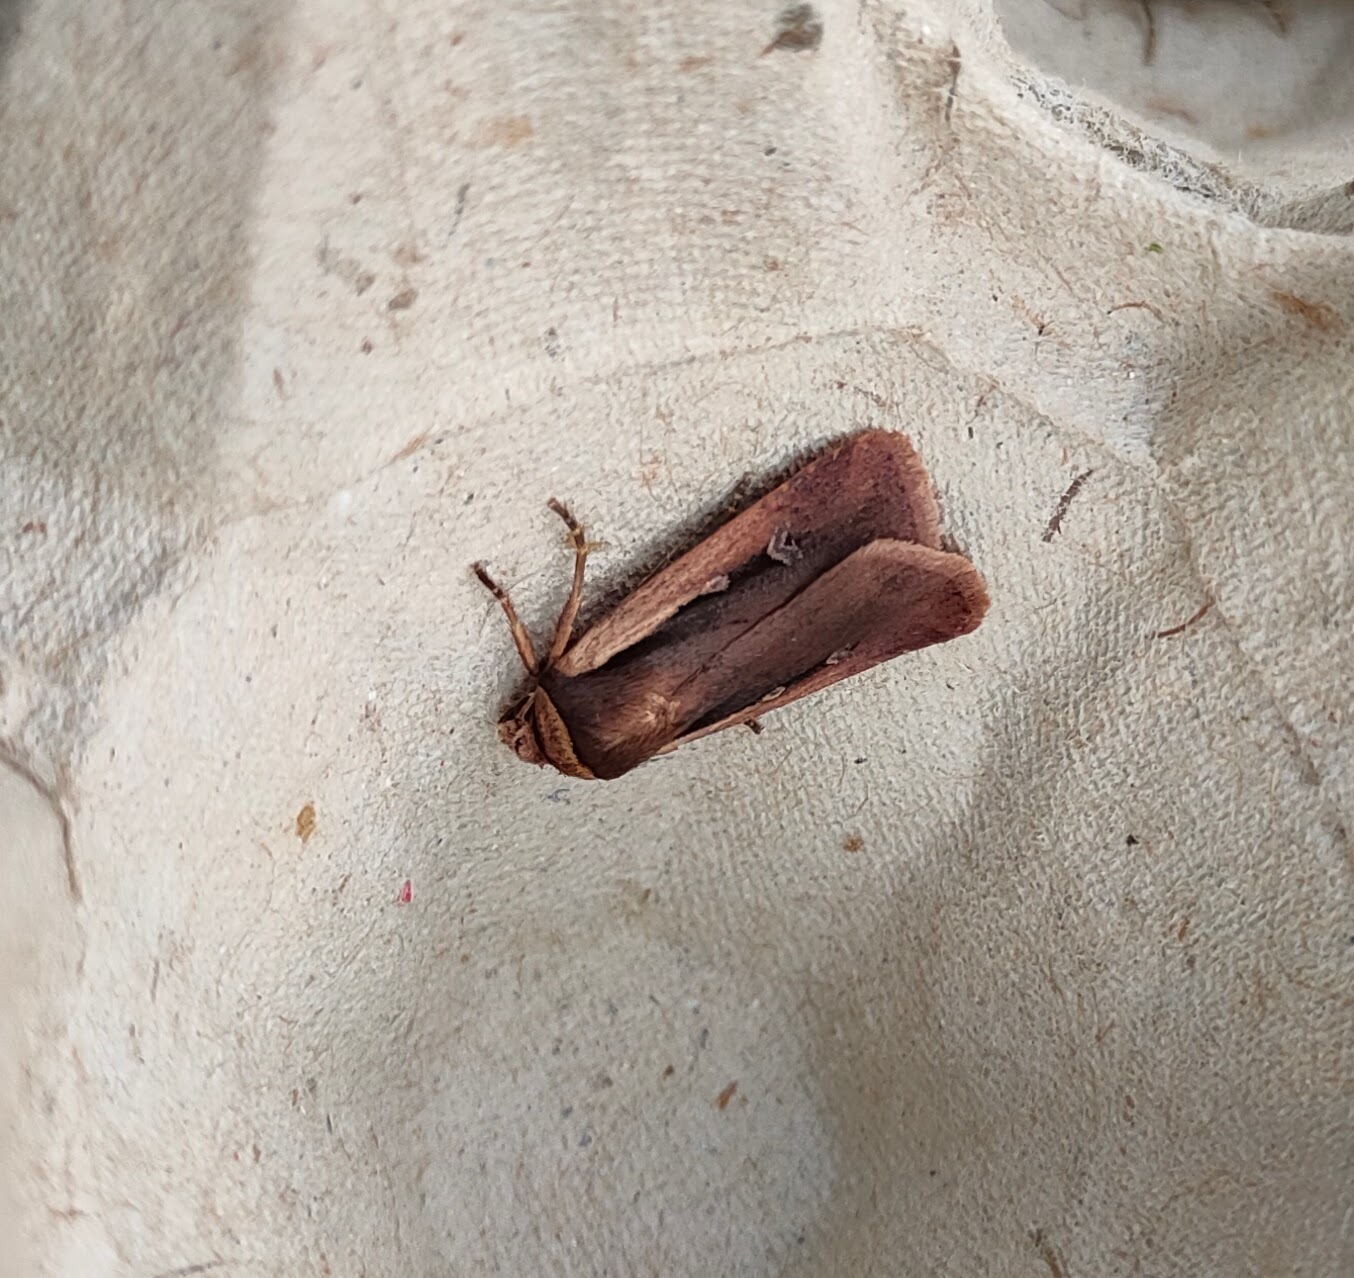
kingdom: Animalia
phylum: Arthropoda
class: Insecta
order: Lepidoptera
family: Noctuidae
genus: Ochropleura
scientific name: Ochropleura plecta
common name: Flame shoulder
